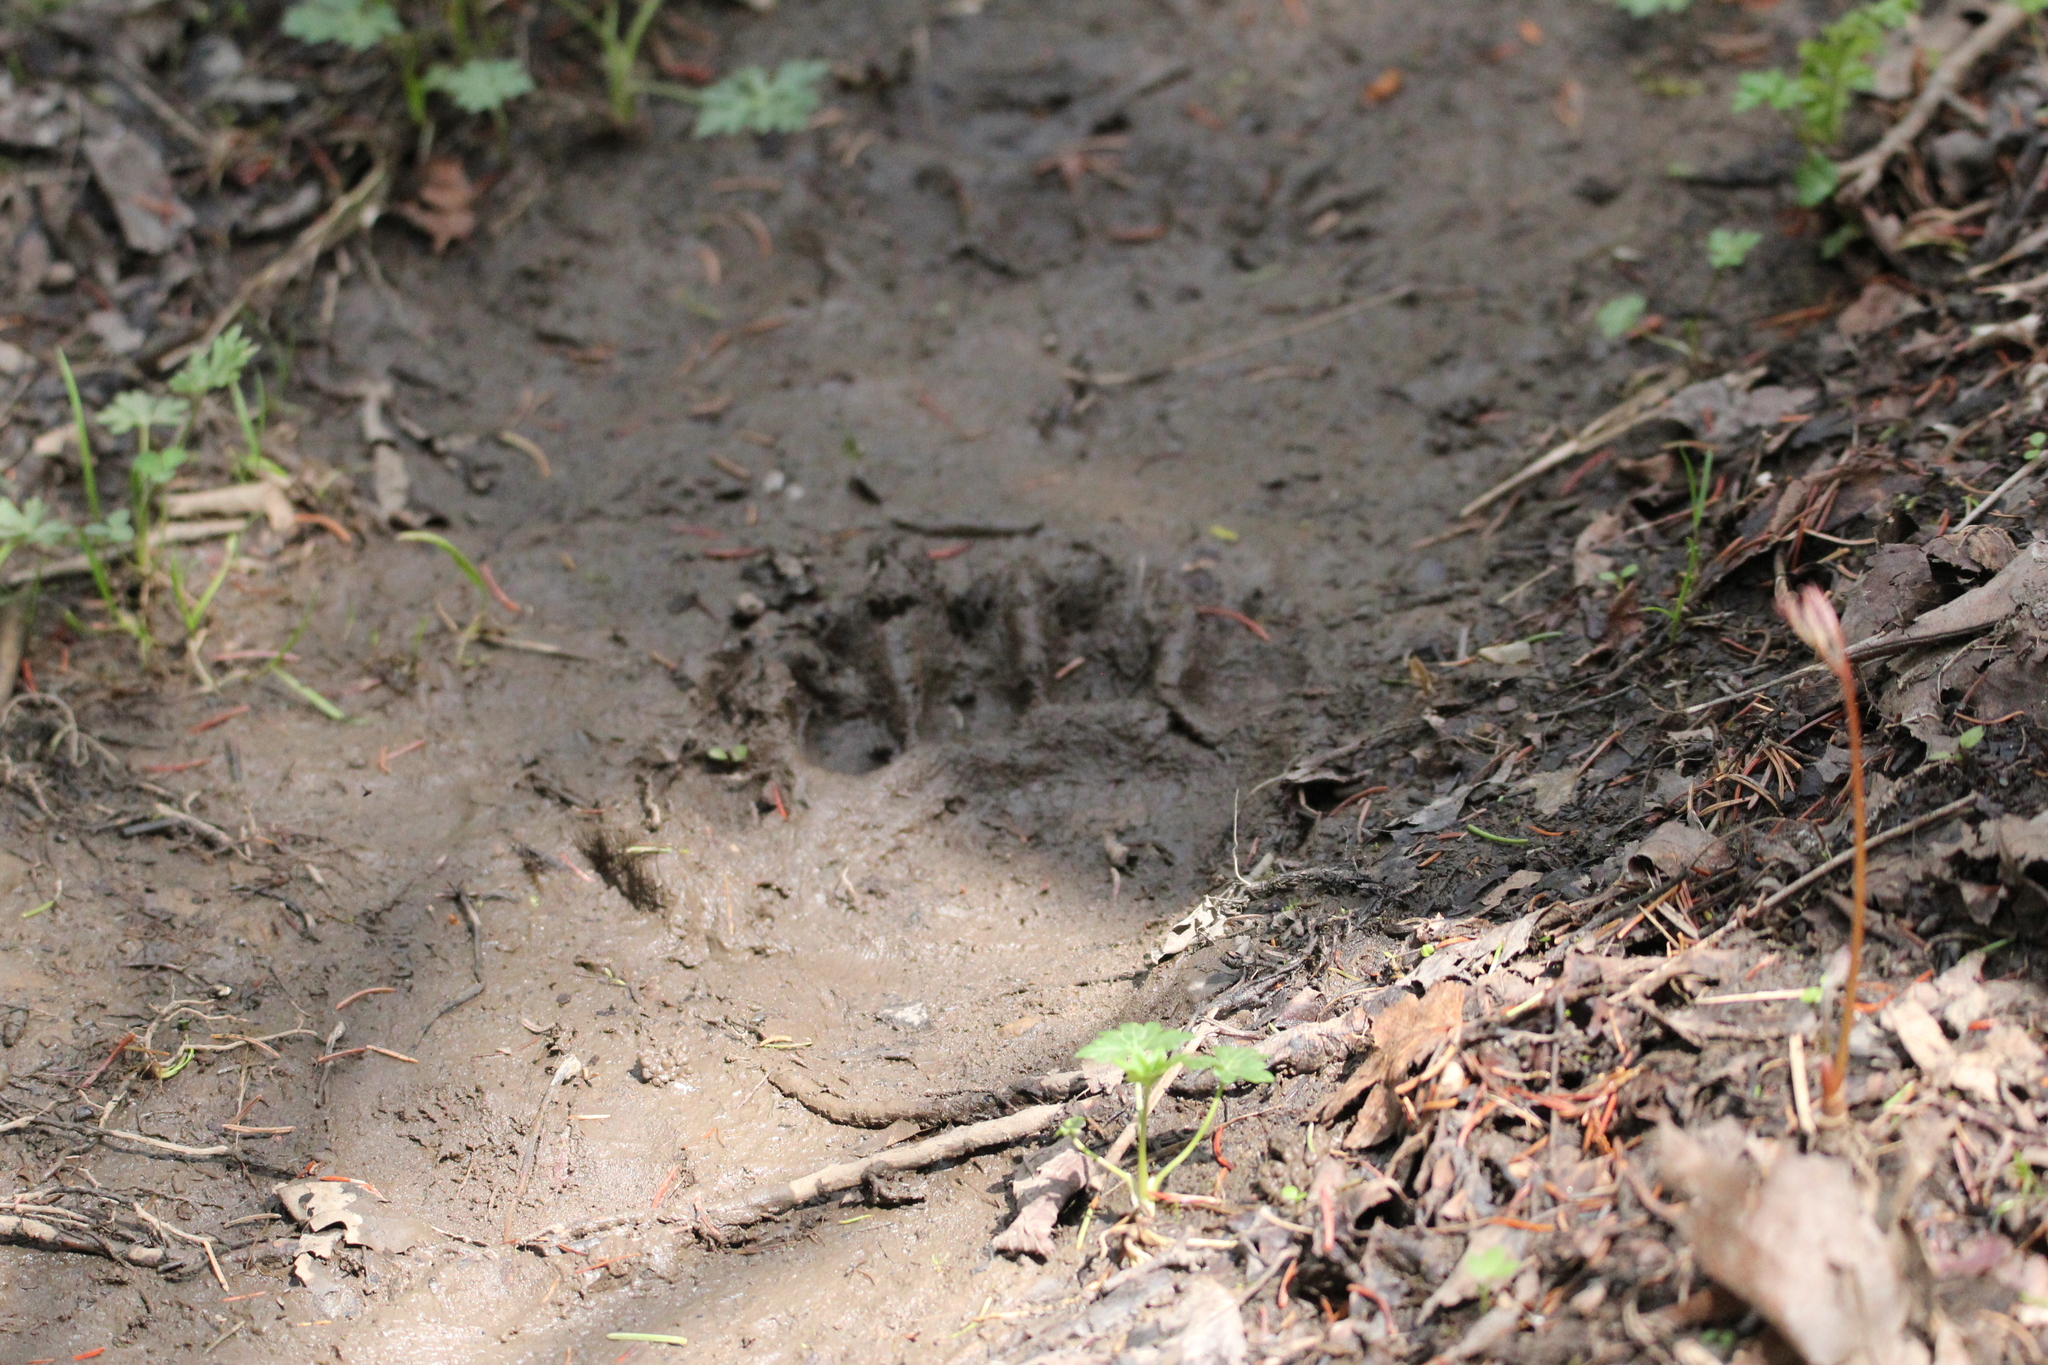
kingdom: Animalia
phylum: Chordata
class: Mammalia
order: Carnivora
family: Ursidae
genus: Ursus
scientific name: Ursus americanus
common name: American black bear
